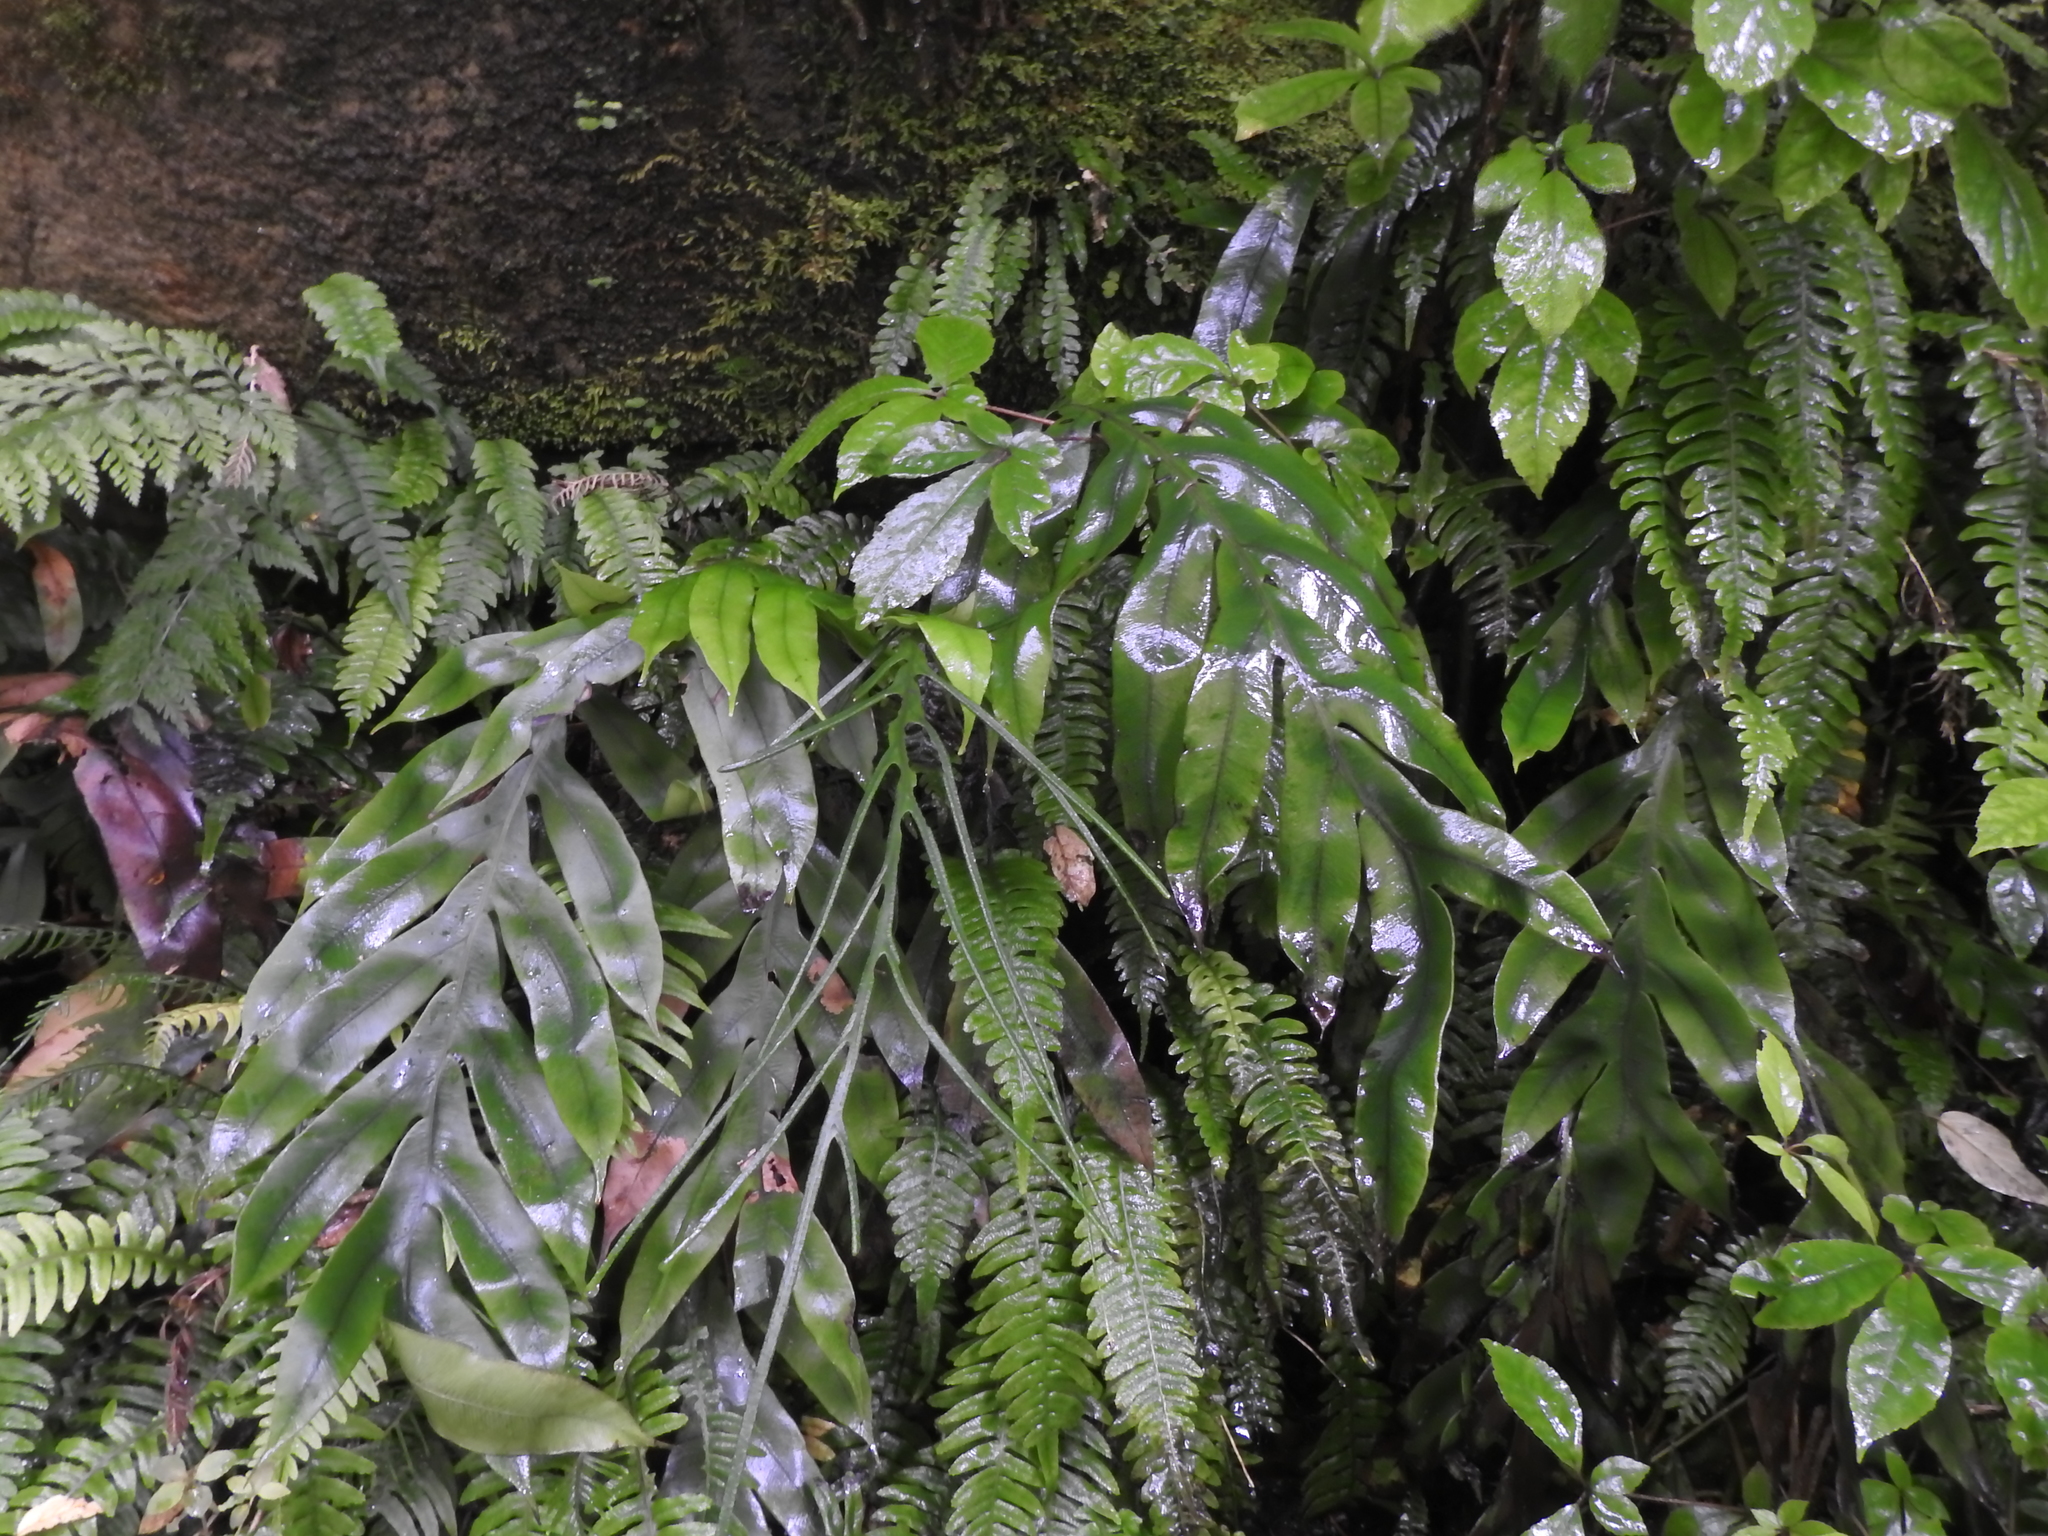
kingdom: Plantae
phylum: Tracheophyta
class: Polypodiopsida
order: Polypodiales
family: Blechnaceae
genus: Austroblechnum
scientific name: Austroblechnum colensoi
